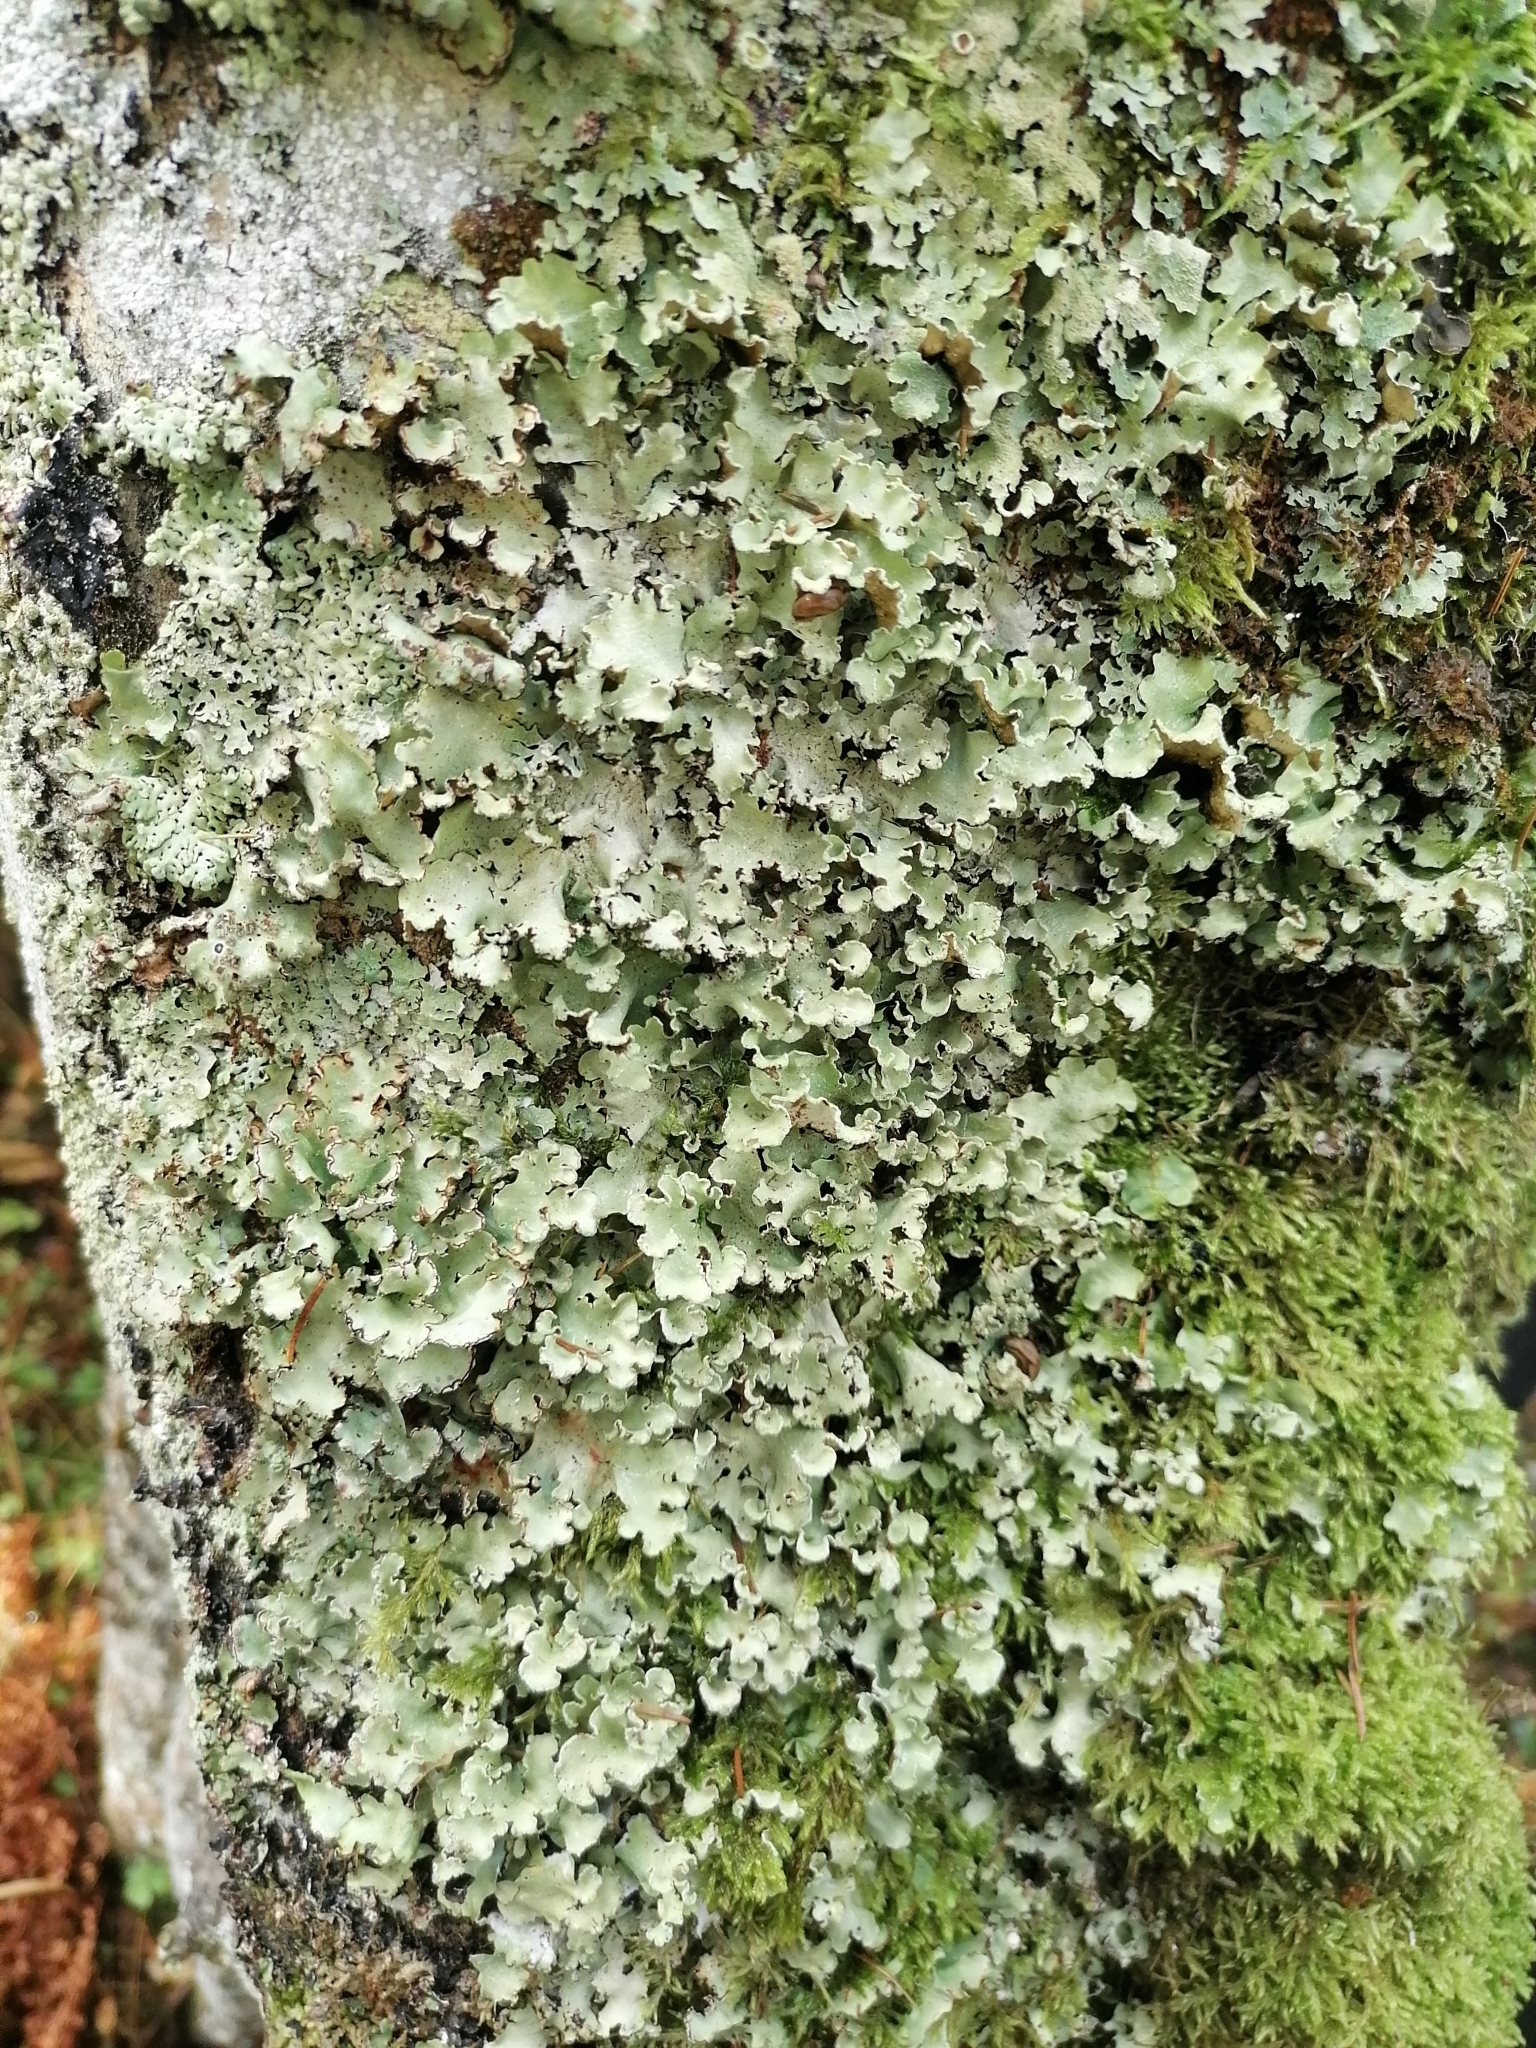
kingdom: Fungi
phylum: Ascomycota
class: Lecanoromycetes
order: Lecanorales
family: Parmeliaceae
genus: Cetrelia
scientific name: Cetrelia
